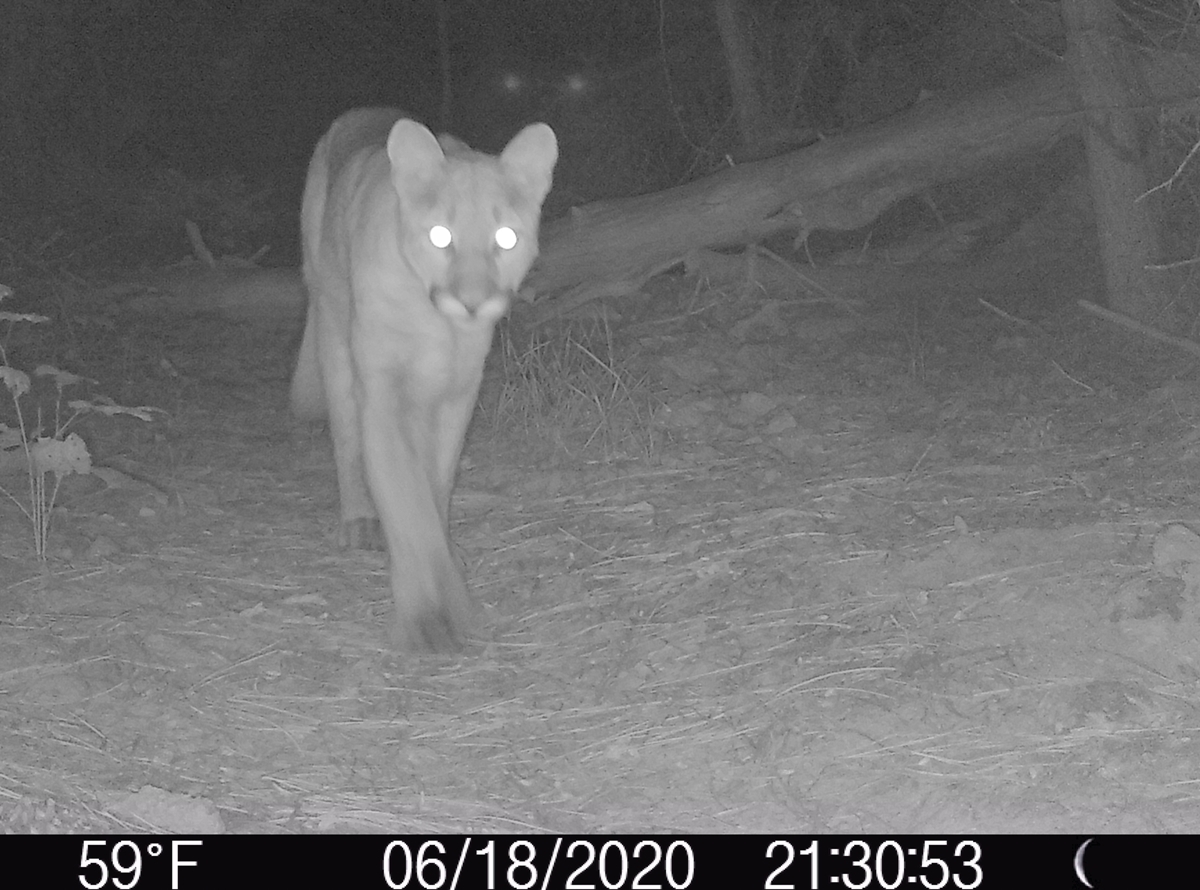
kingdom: Animalia
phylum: Chordata
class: Mammalia
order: Carnivora
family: Felidae
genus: Puma
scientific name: Puma concolor
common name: Puma
